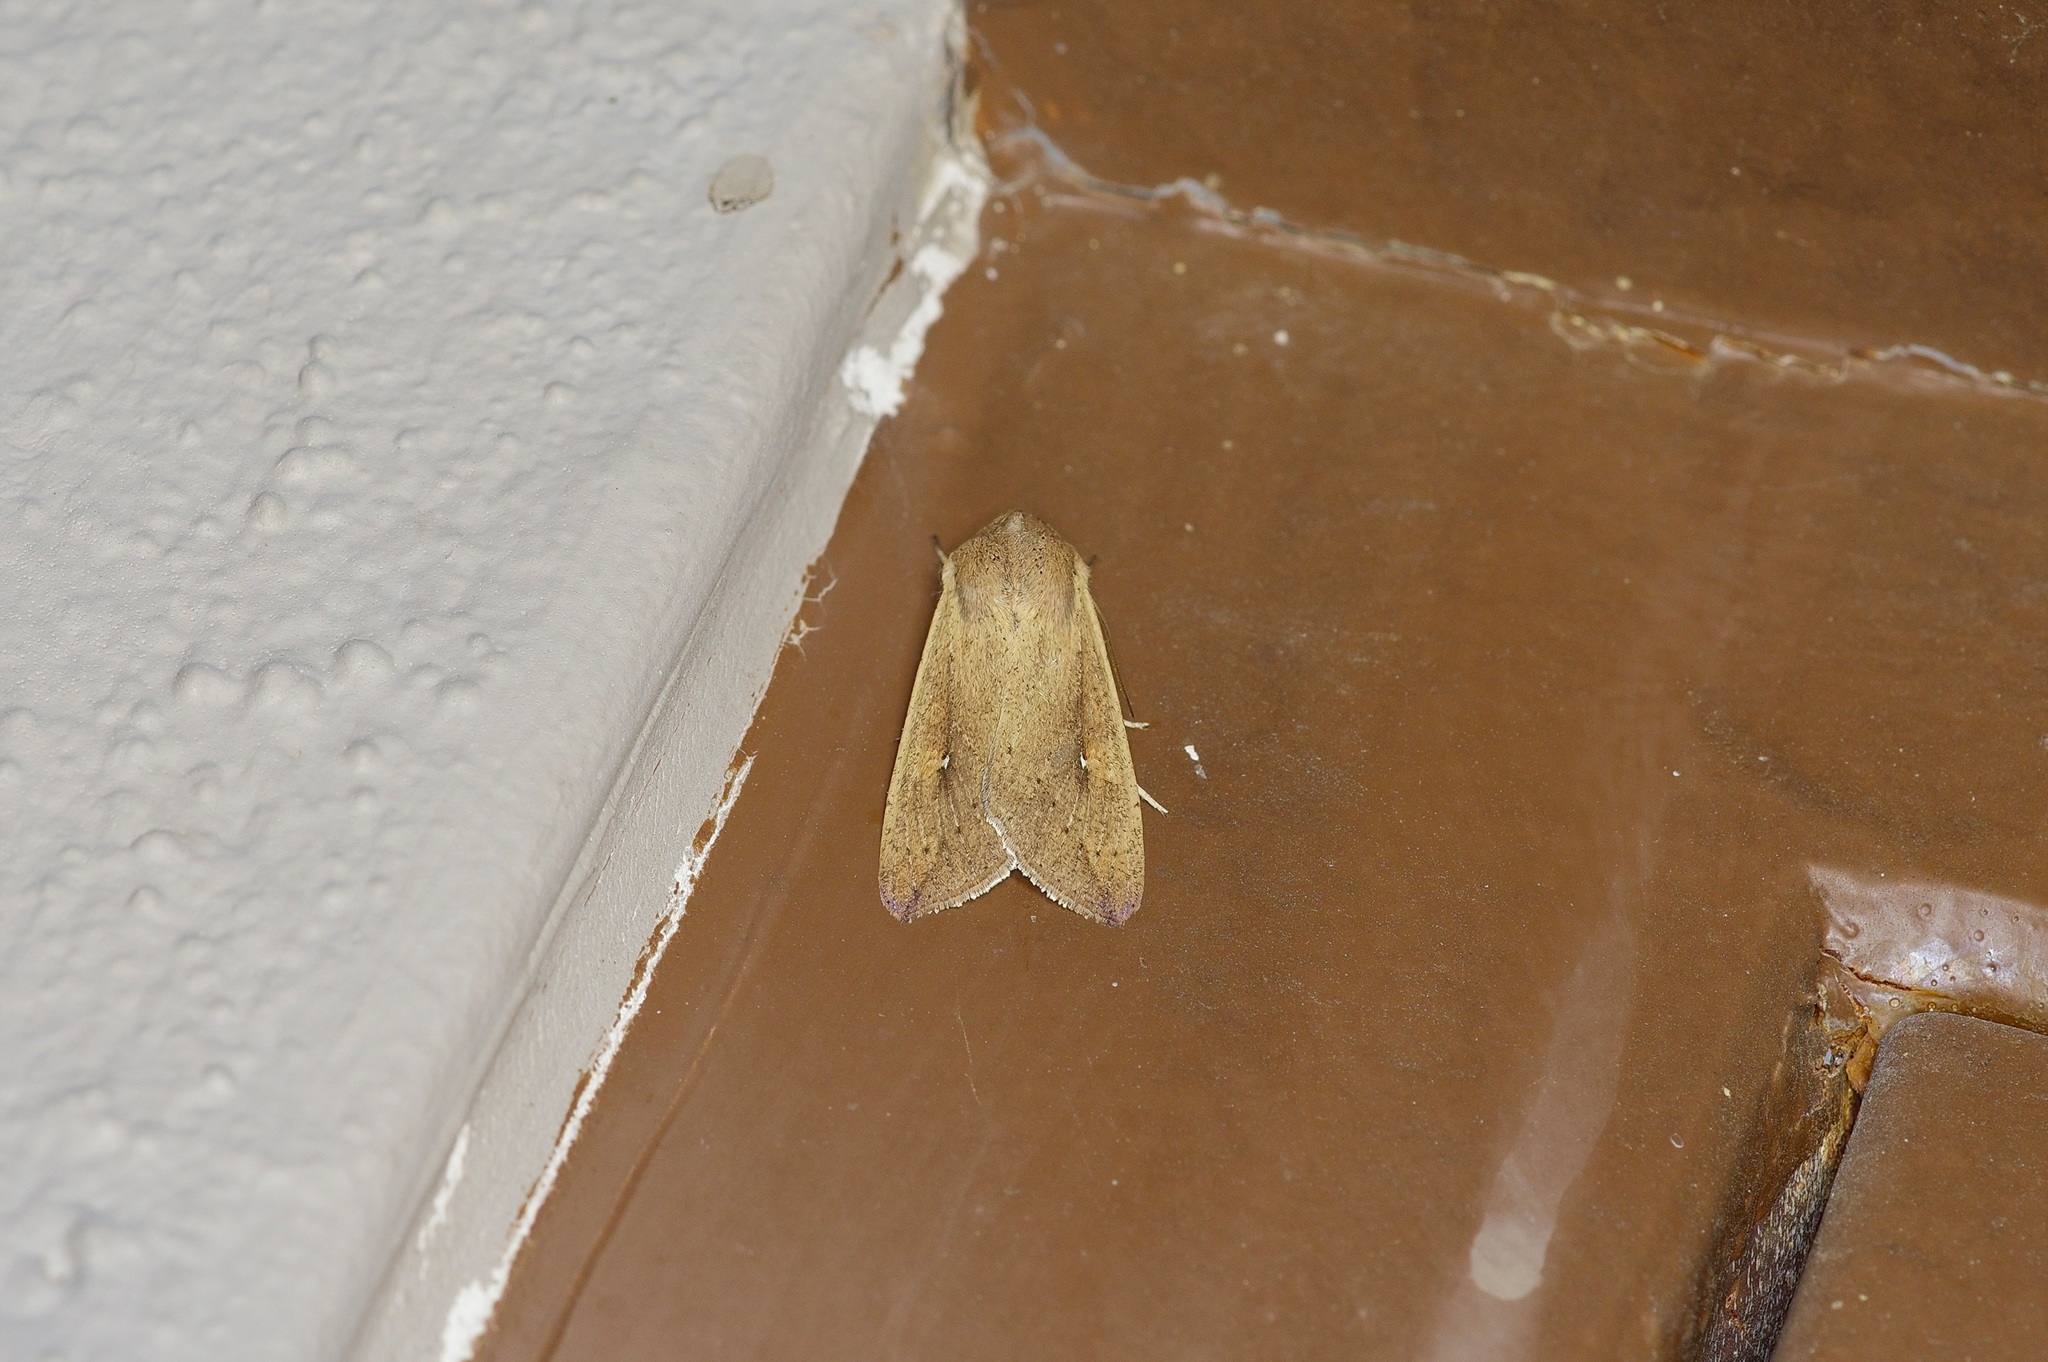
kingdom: Animalia
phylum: Arthropoda
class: Insecta
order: Lepidoptera
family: Noctuidae
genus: Mythimna
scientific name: Mythimna unipuncta
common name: White-speck
